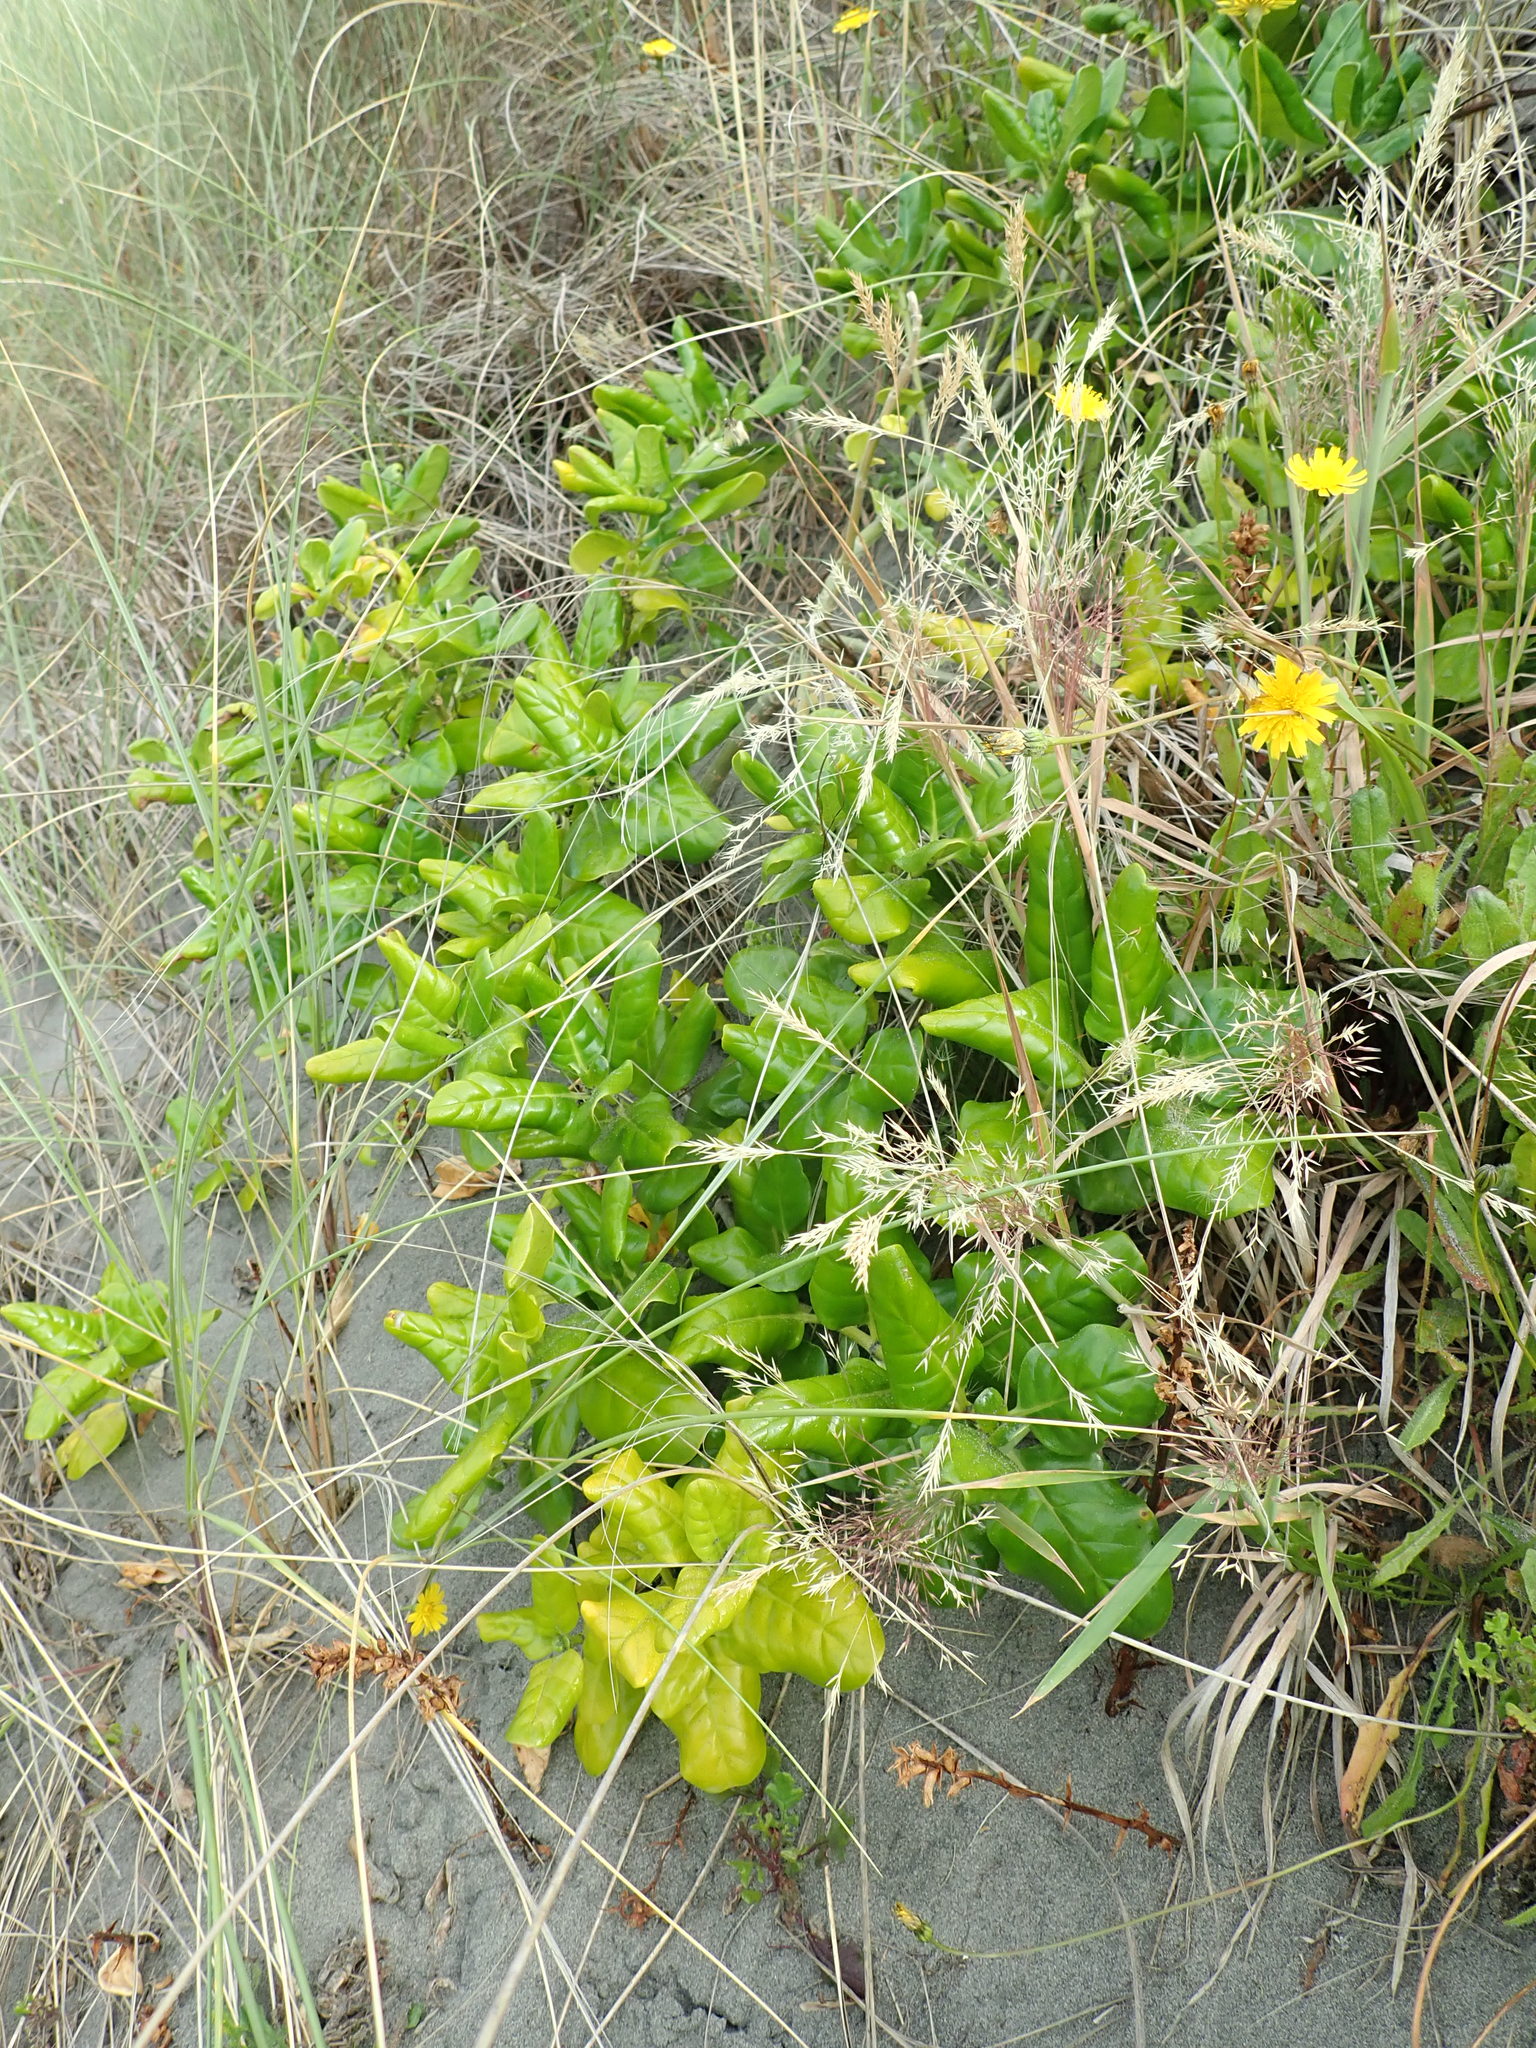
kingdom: Plantae
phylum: Tracheophyta
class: Magnoliopsida
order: Gentianales
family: Rubiaceae
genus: Coprosma
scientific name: Coprosma repens
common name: Tree bedstraw
